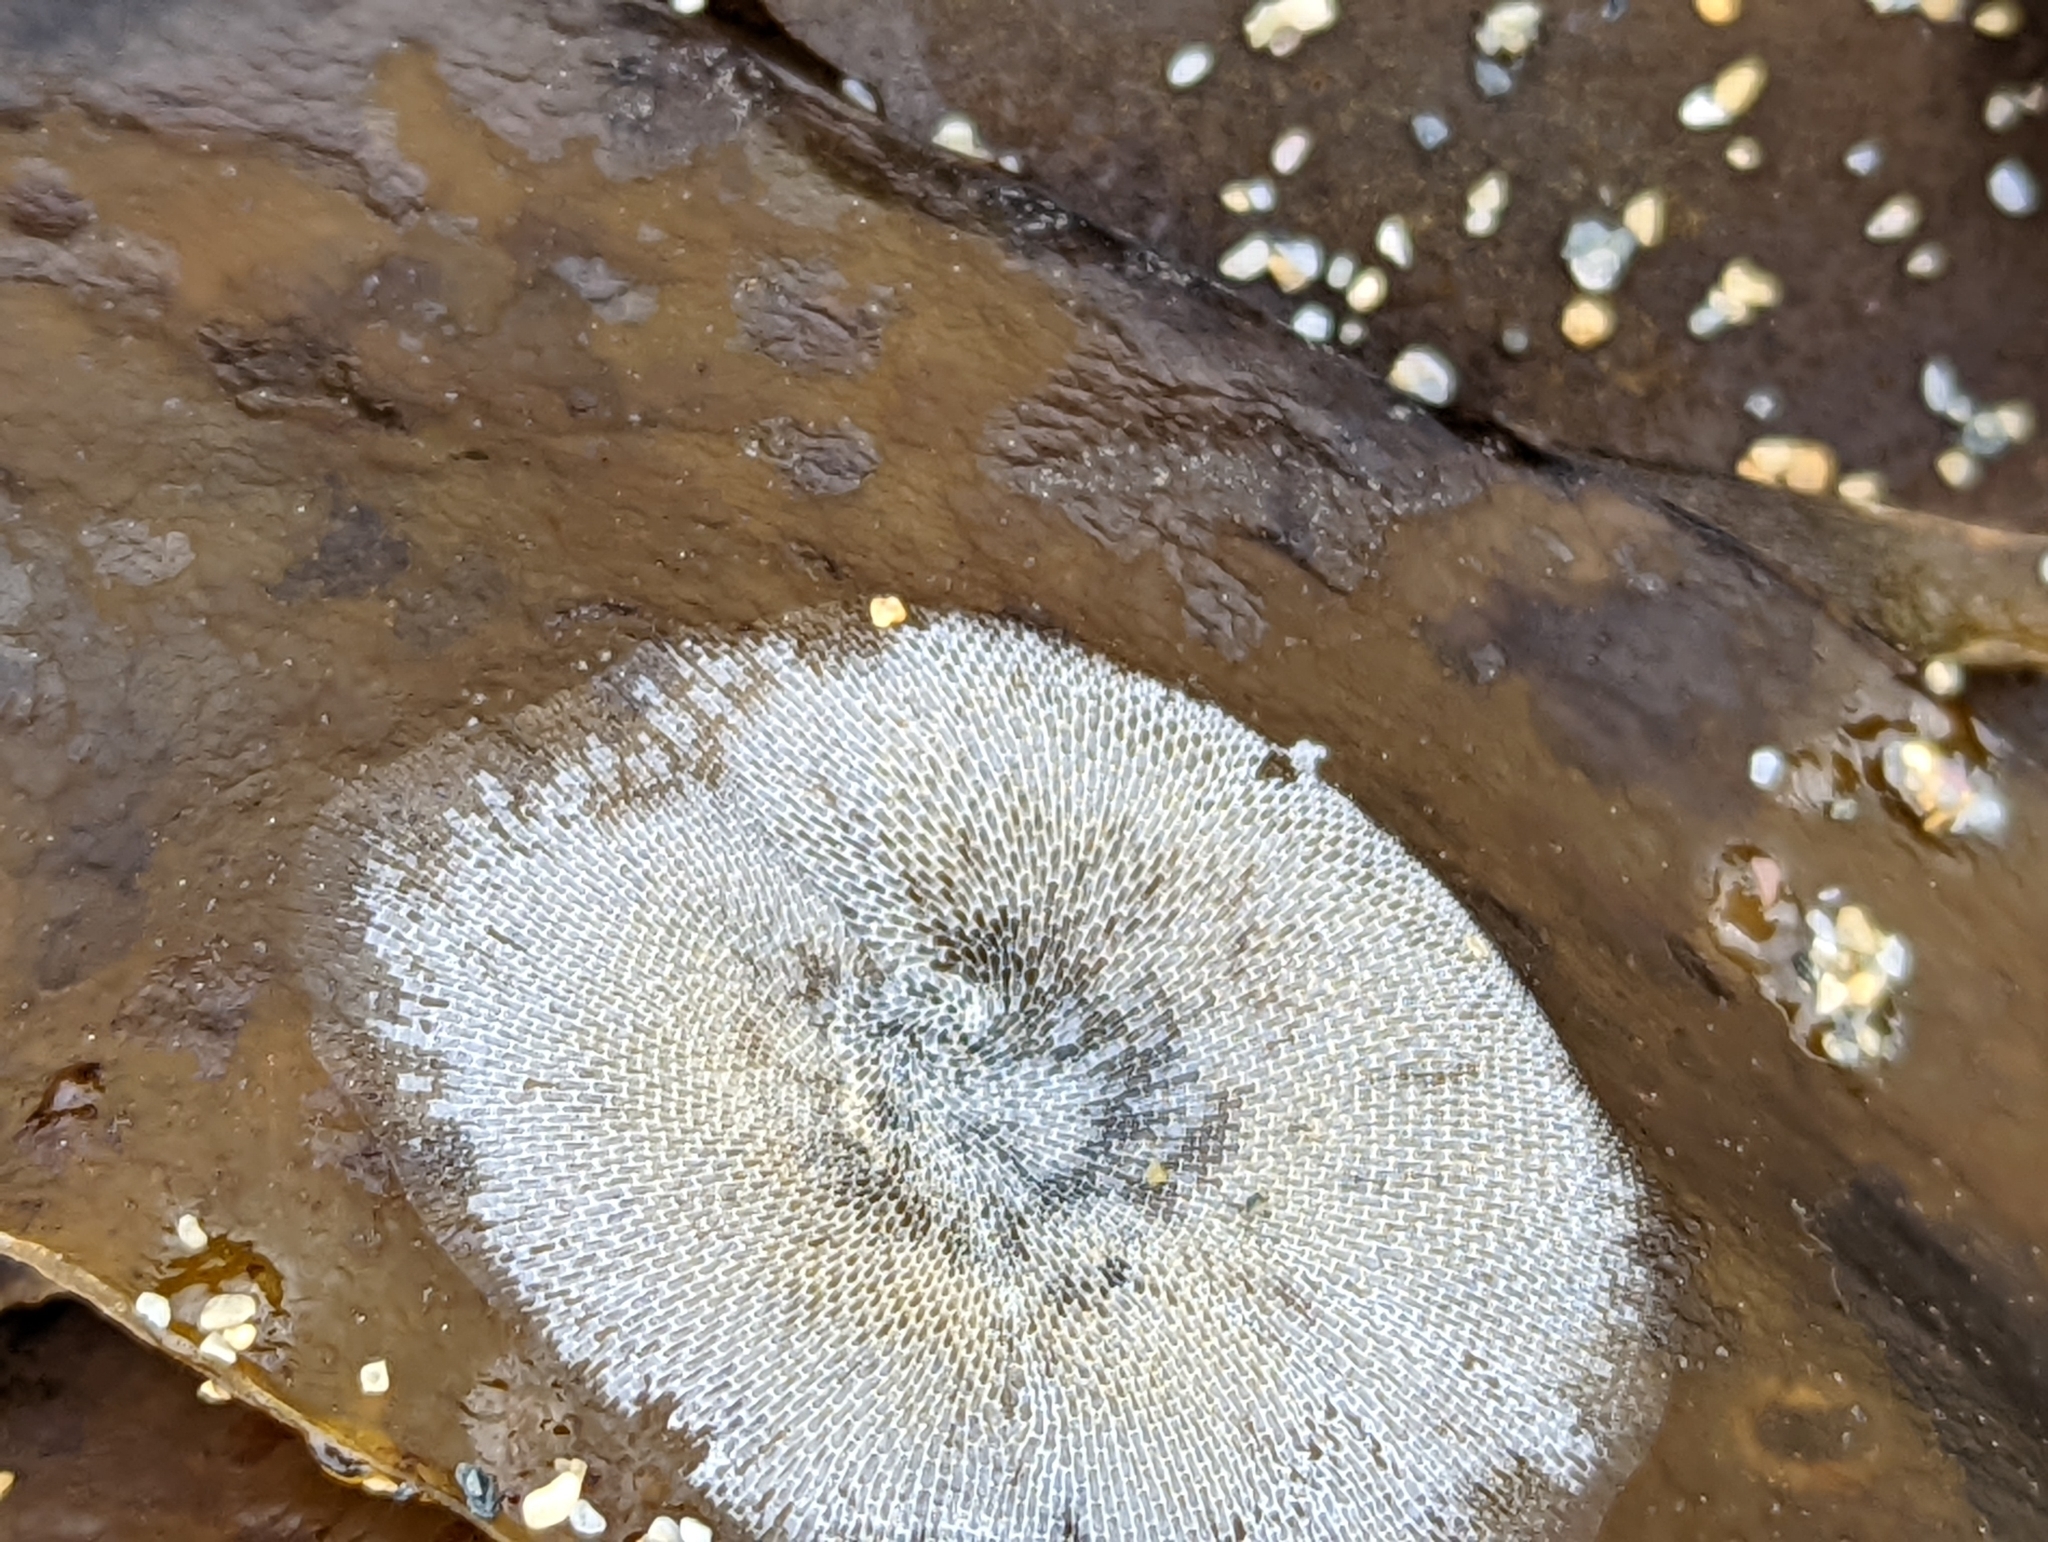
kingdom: Animalia
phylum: Bryozoa
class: Gymnolaemata
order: Cheilostomatida
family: Membraniporidae
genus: Membranipora
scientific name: Membranipora membranacea
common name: Sea mat
